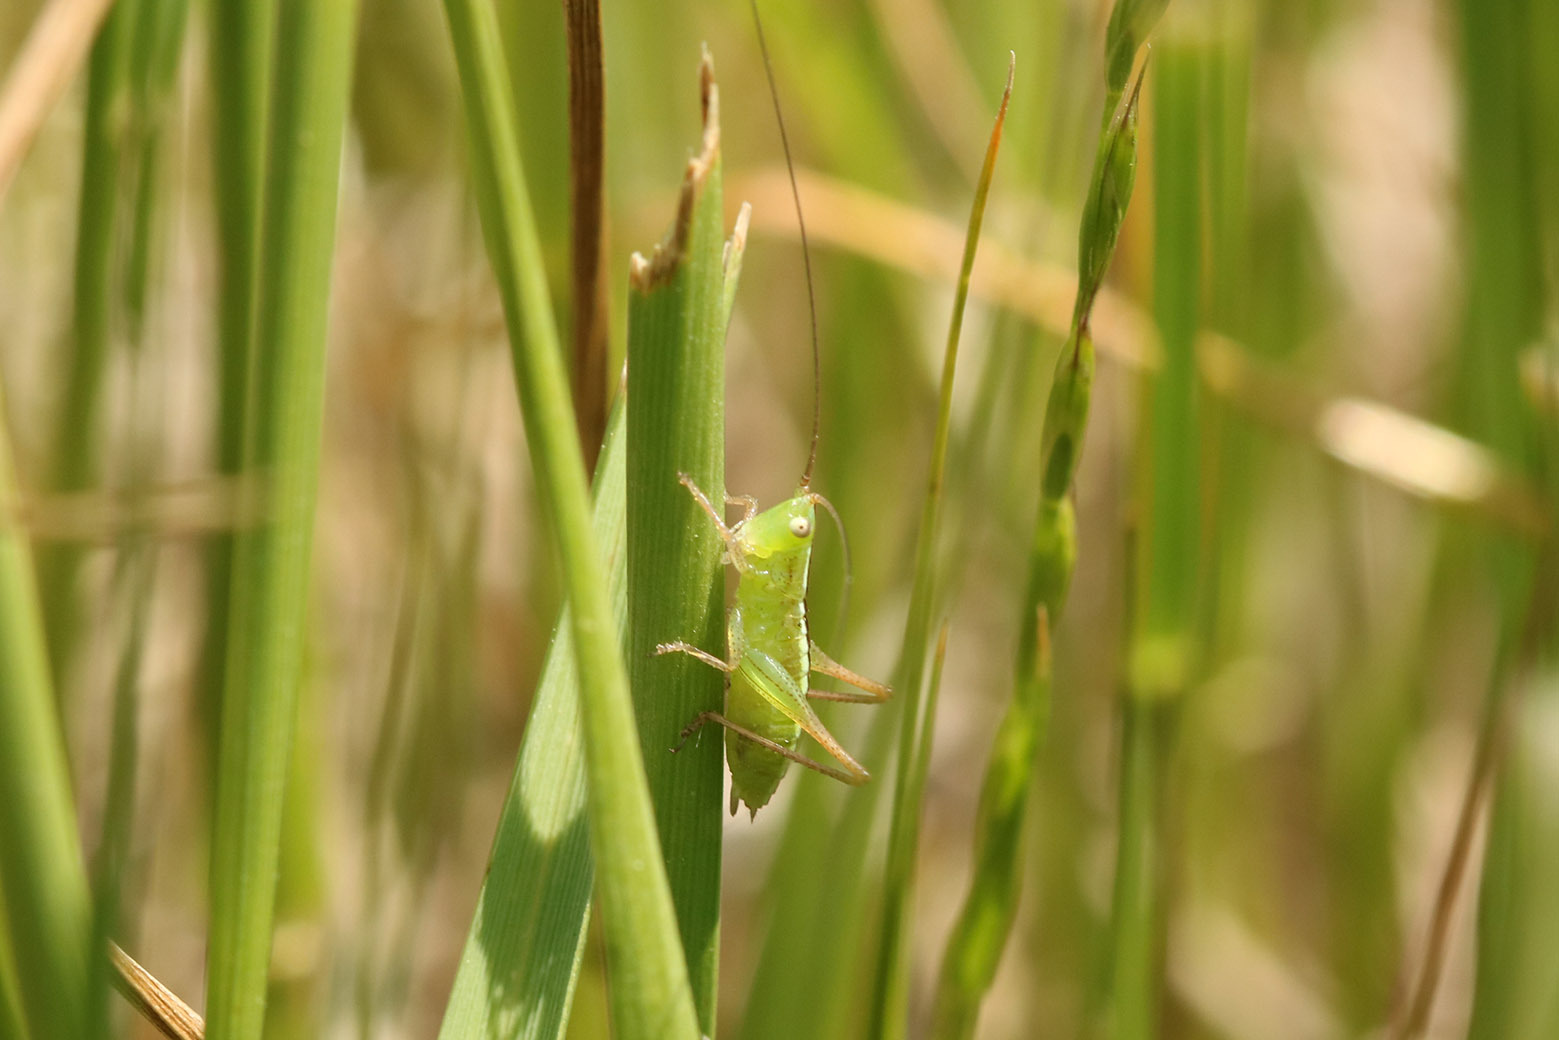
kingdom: Animalia
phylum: Arthropoda
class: Insecta
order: Orthoptera
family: Tettigoniidae
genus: Conocephalus
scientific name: Conocephalus longipes
